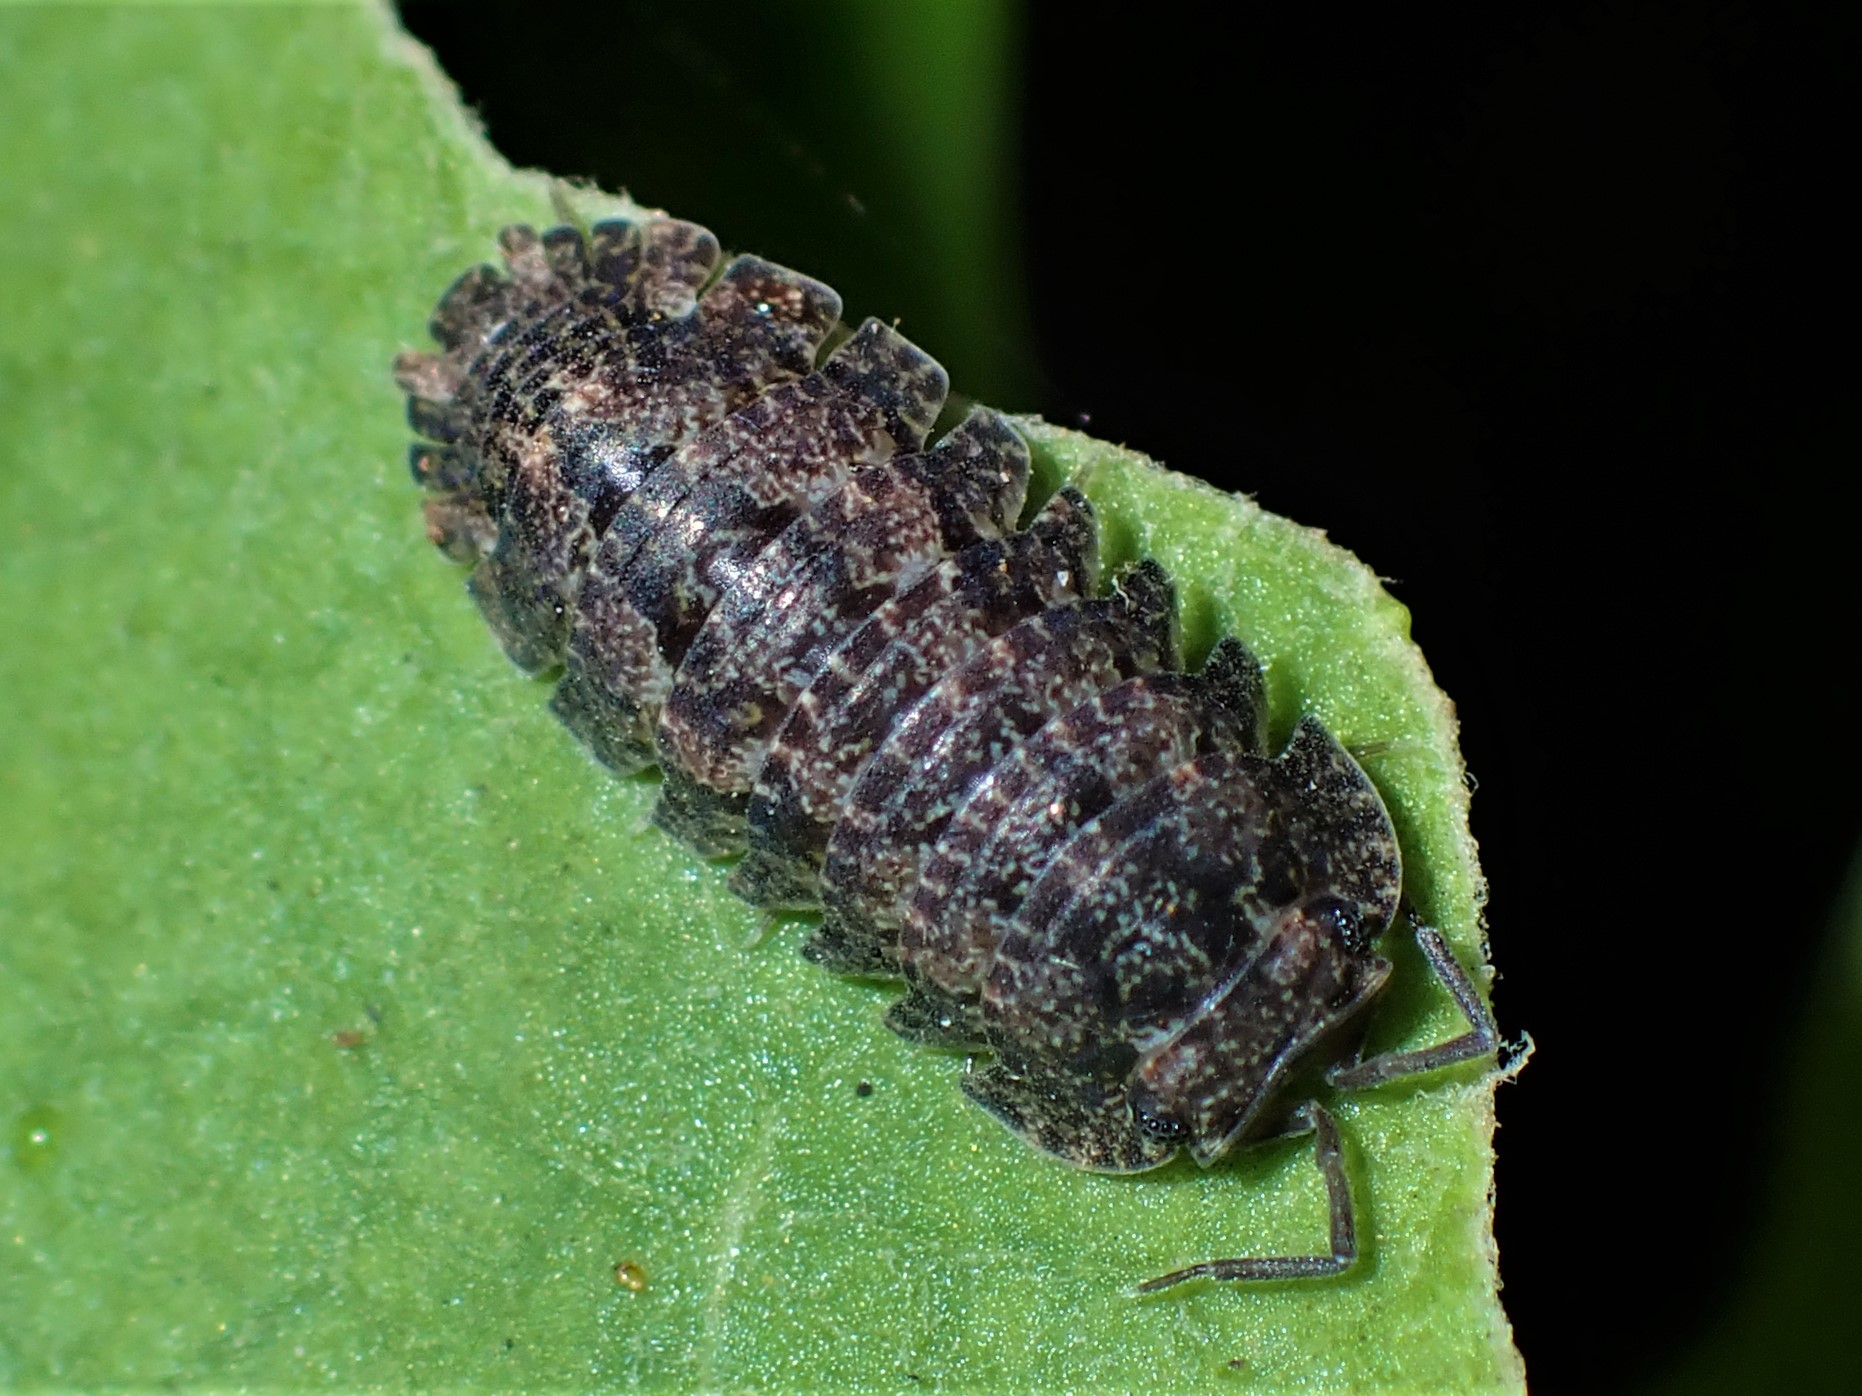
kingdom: Animalia
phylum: Arthropoda
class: Malacostraca
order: Isopoda
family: Armadillidae
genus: Cubaris
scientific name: Cubaris tarangensis
